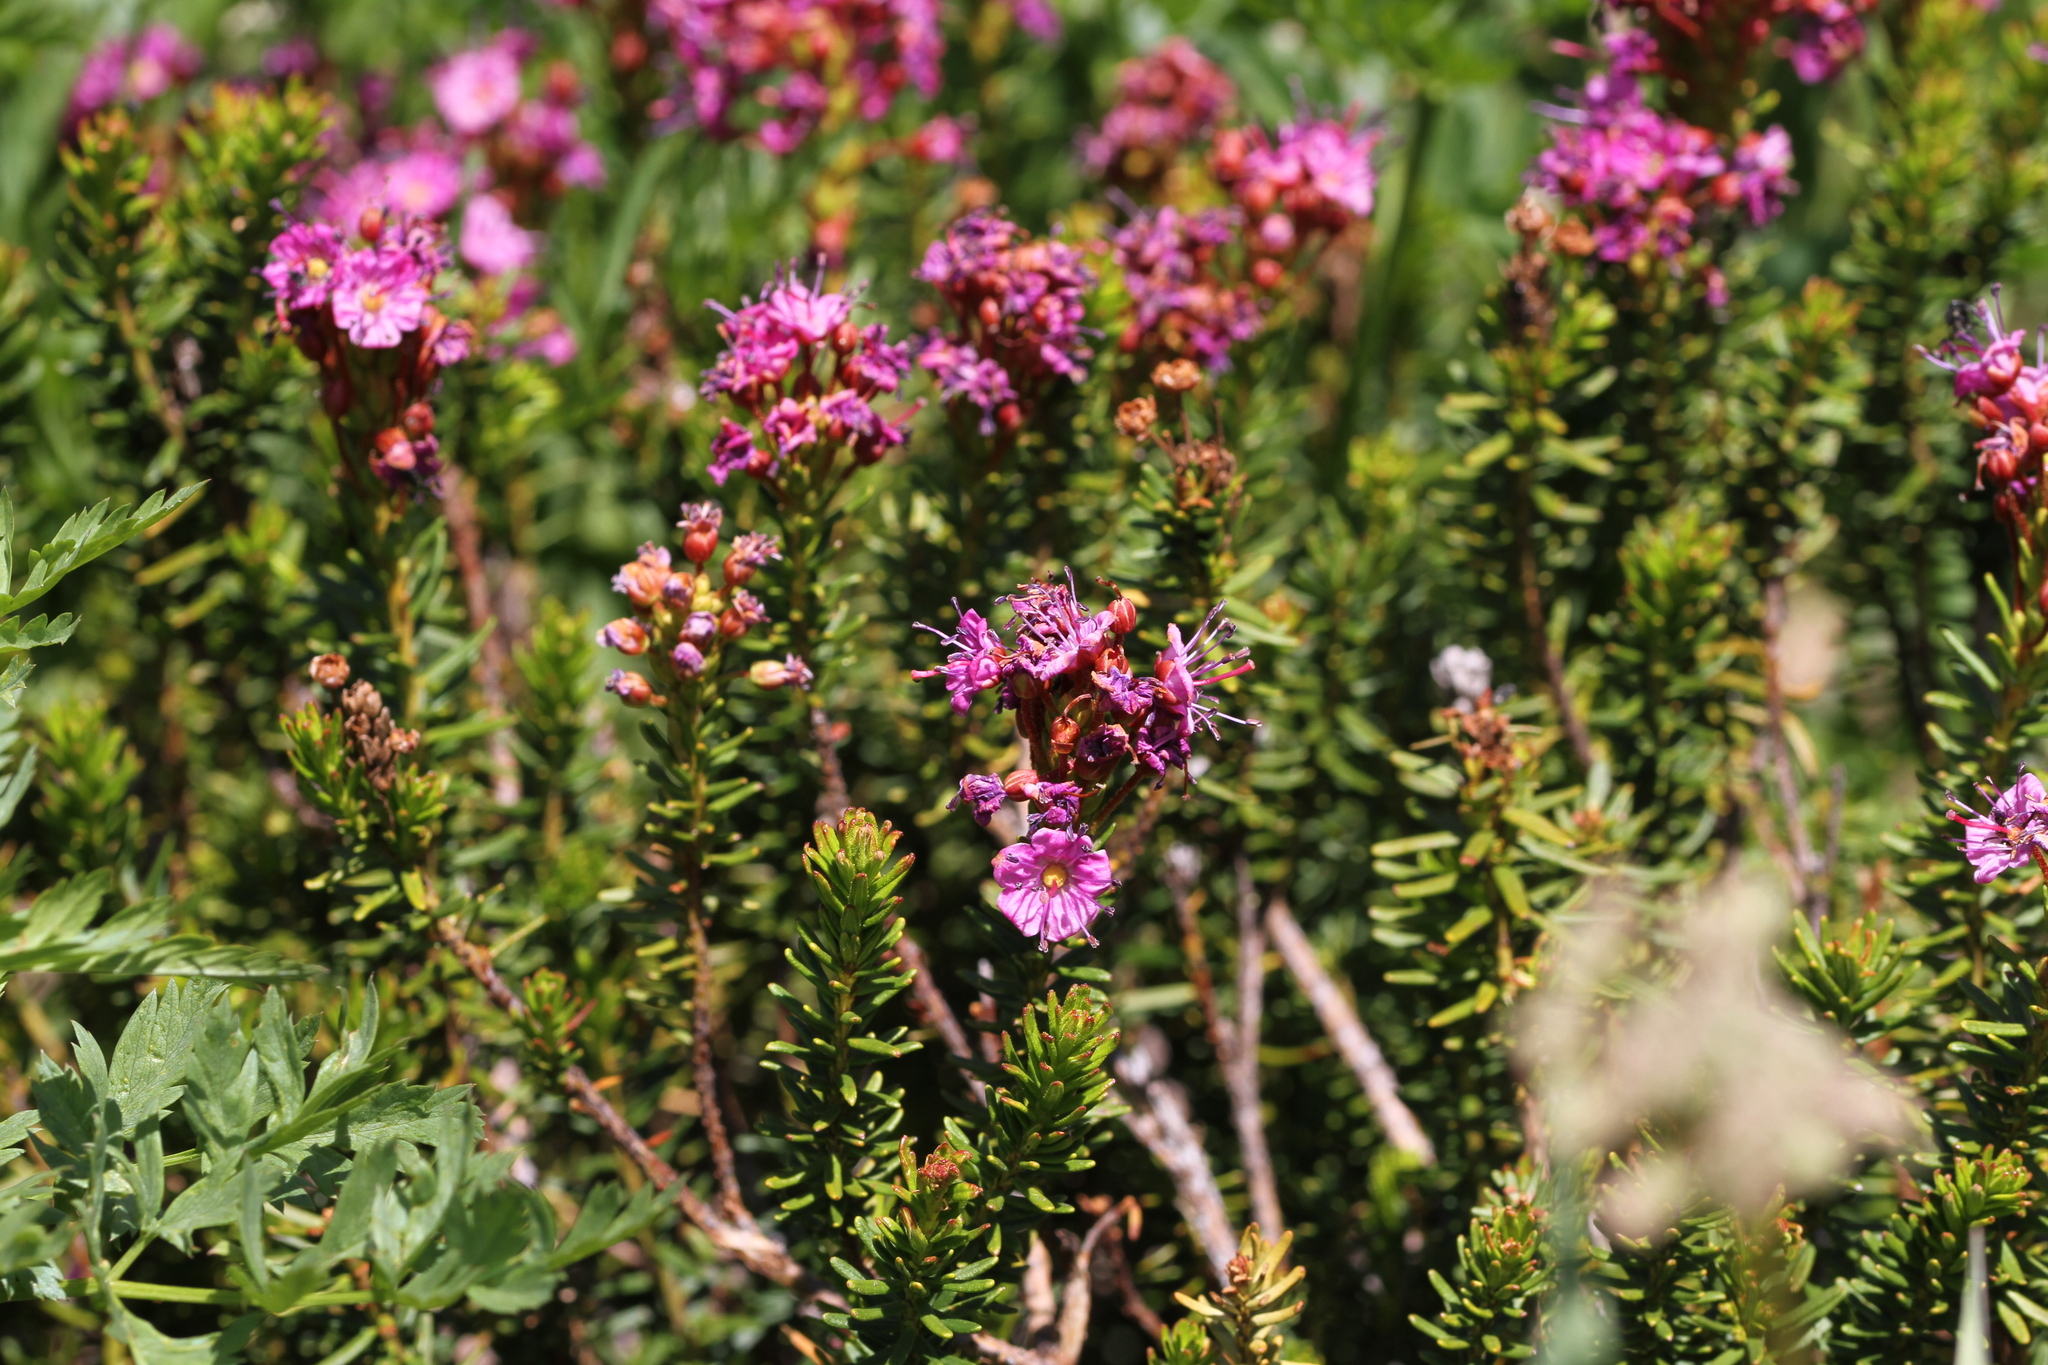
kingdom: Plantae
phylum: Tracheophyta
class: Magnoliopsida
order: Ericales
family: Ericaceae
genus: Phyllodoce
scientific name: Phyllodoce breweri
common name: Brewer's mountain-heather
